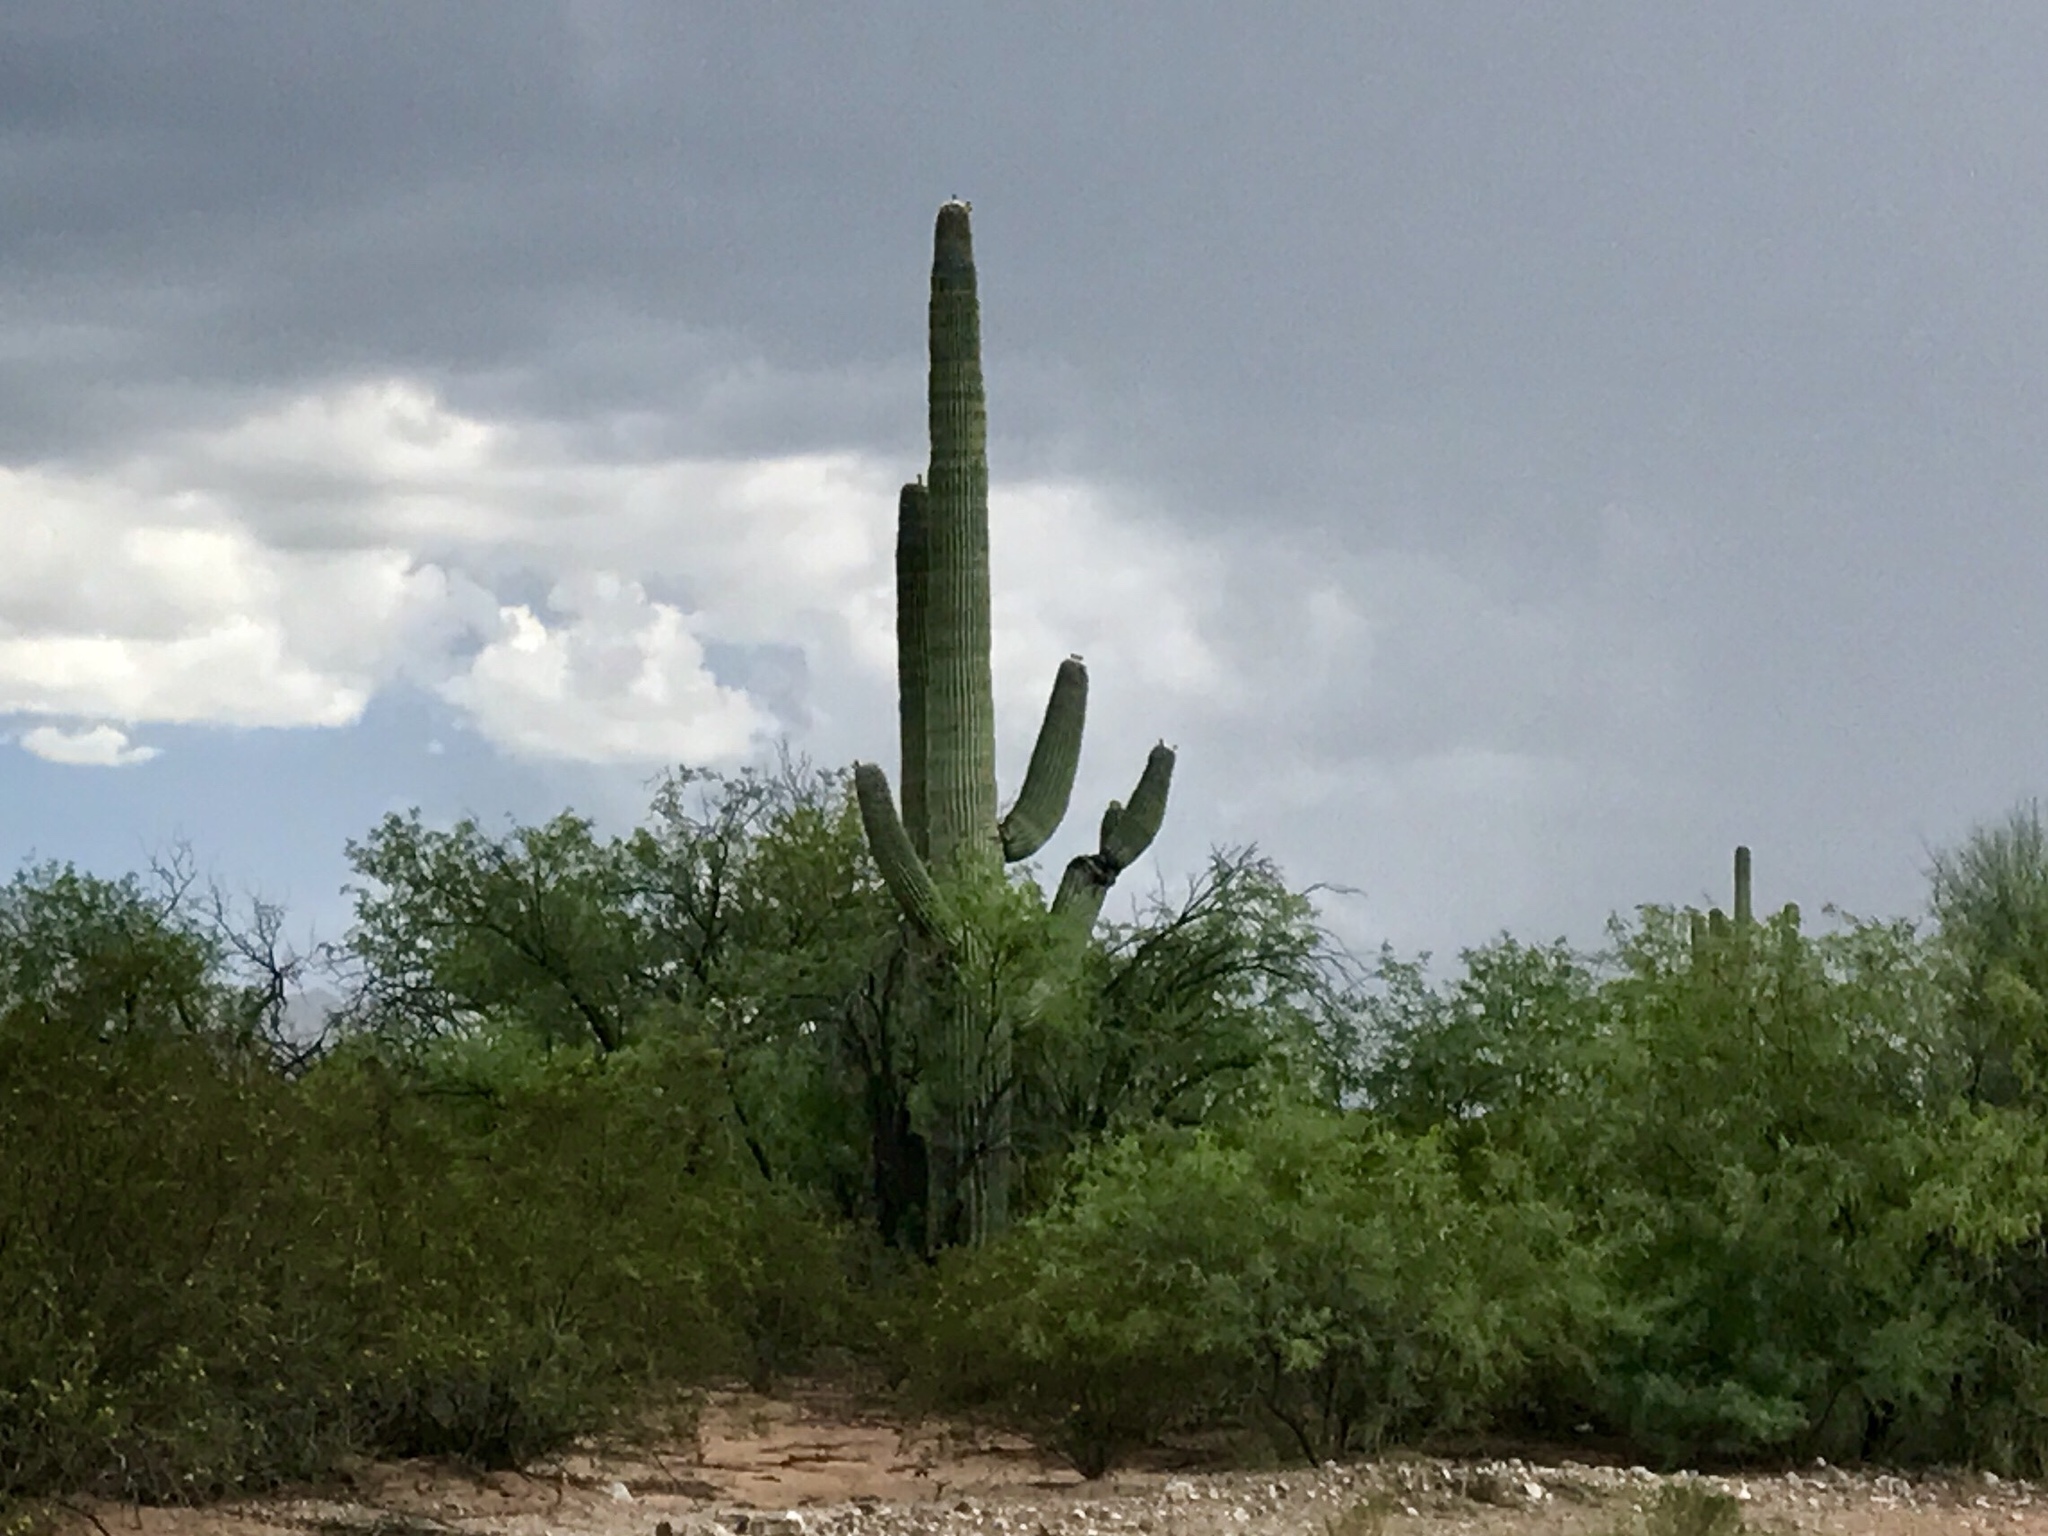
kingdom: Plantae
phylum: Tracheophyta
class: Magnoliopsida
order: Caryophyllales
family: Cactaceae
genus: Carnegiea
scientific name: Carnegiea gigantea
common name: Saguaro
